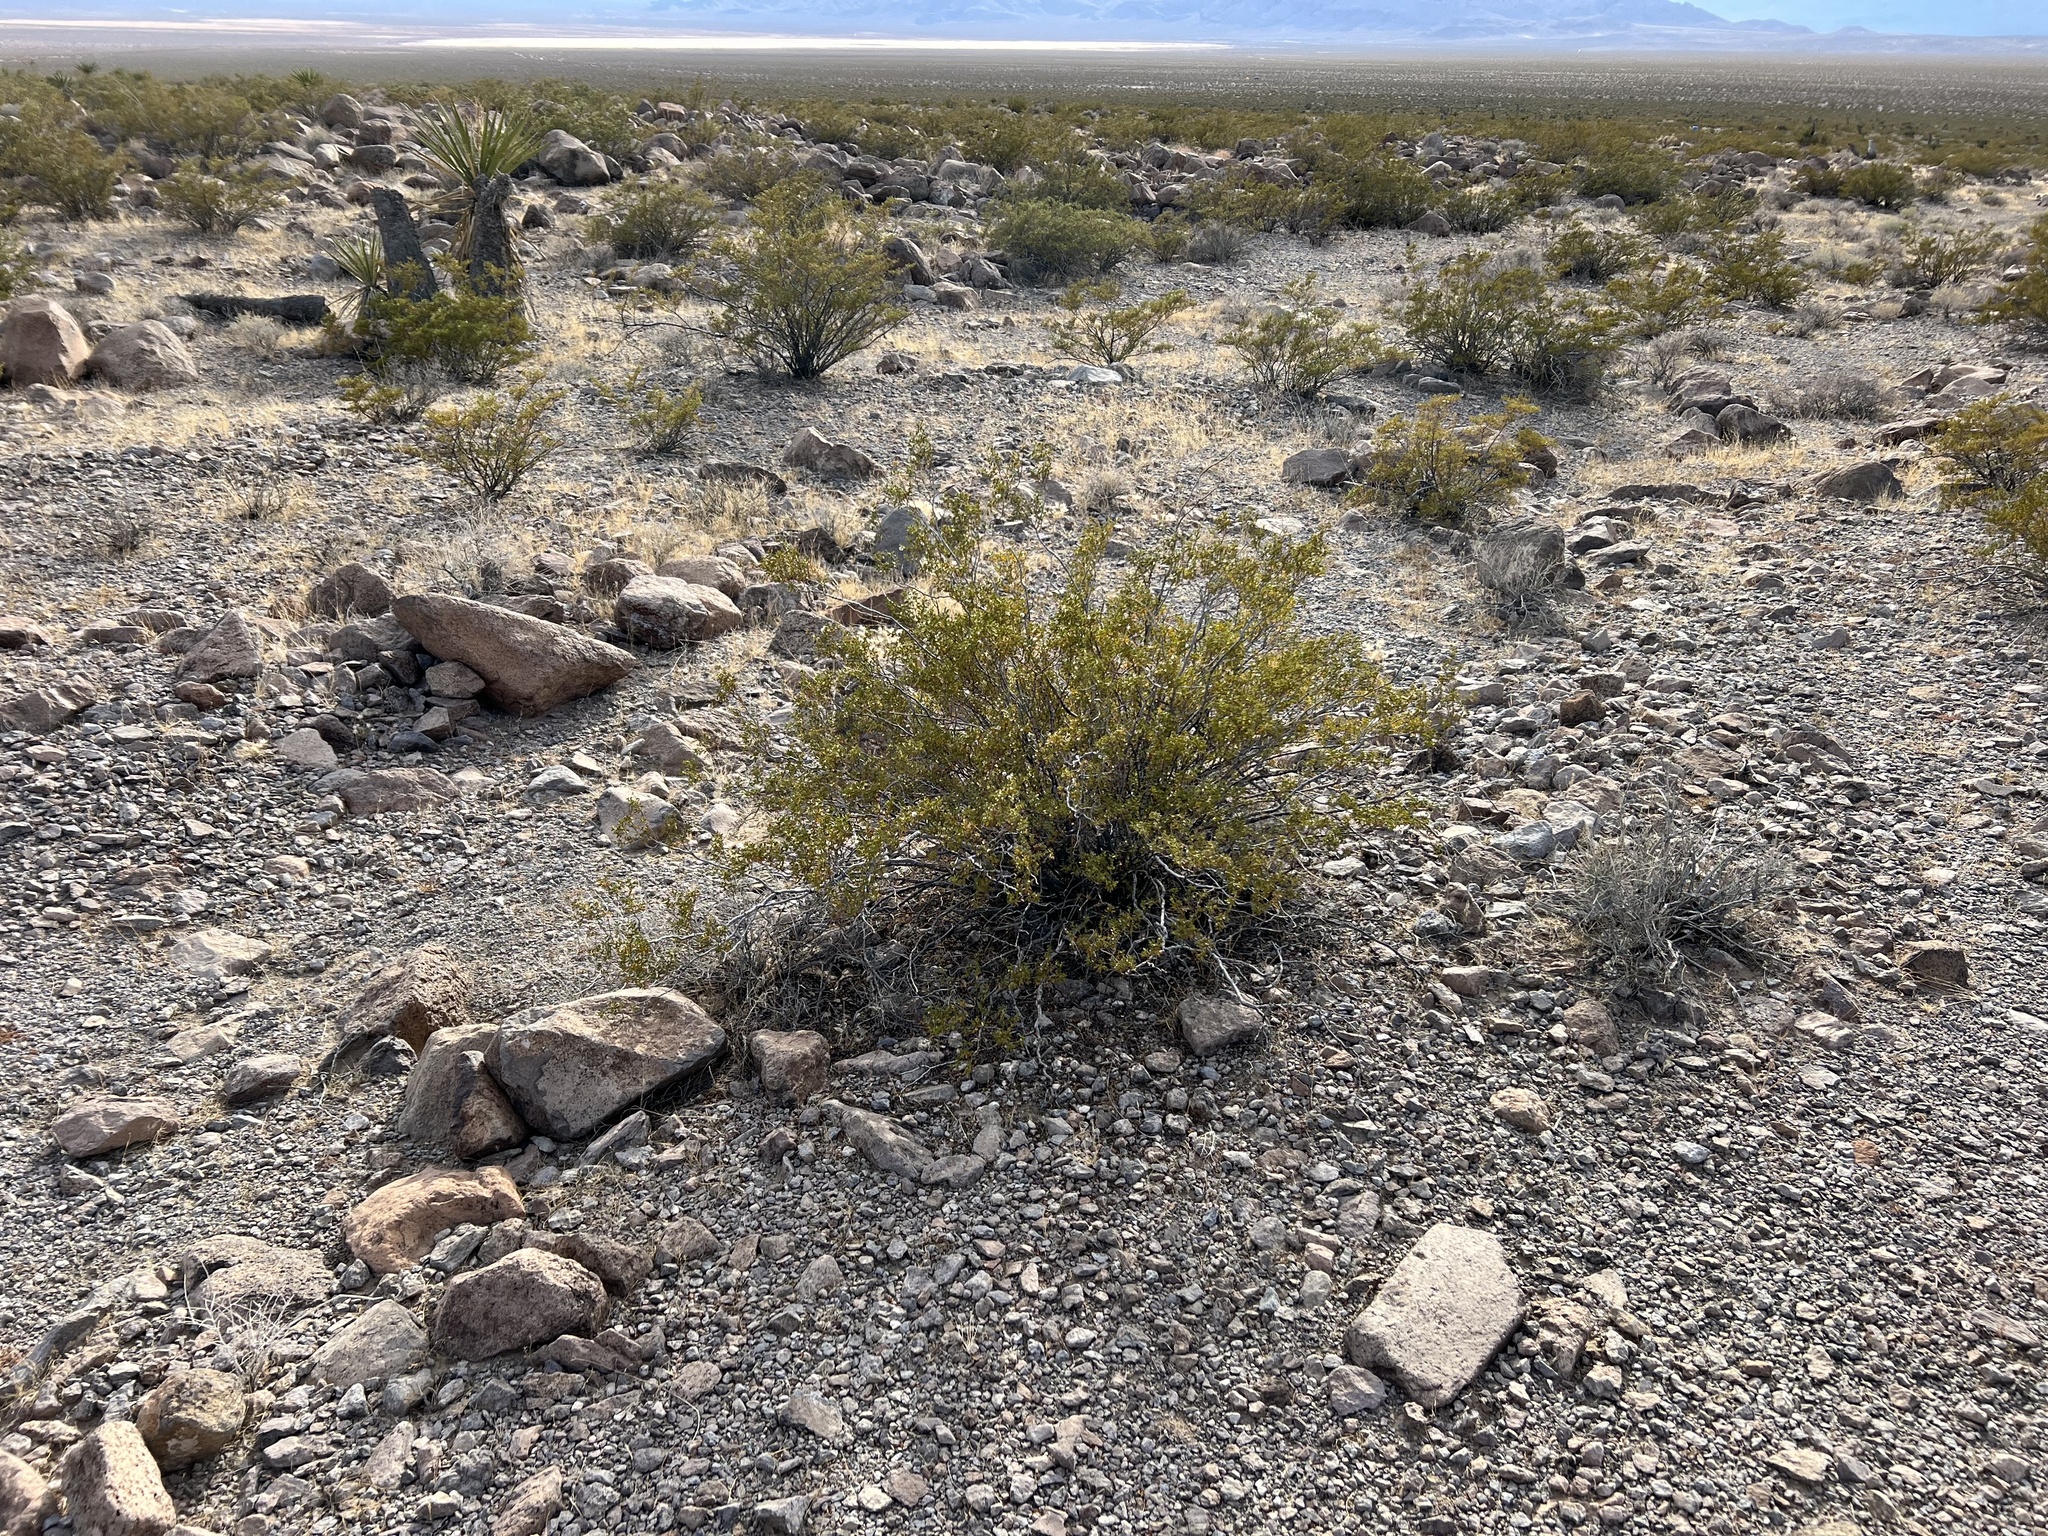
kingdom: Plantae
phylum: Tracheophyta
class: Magnoliopsida
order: Zygophyllales
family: Zygophyllaceae
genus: Larrea
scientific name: Larrea tridentata
